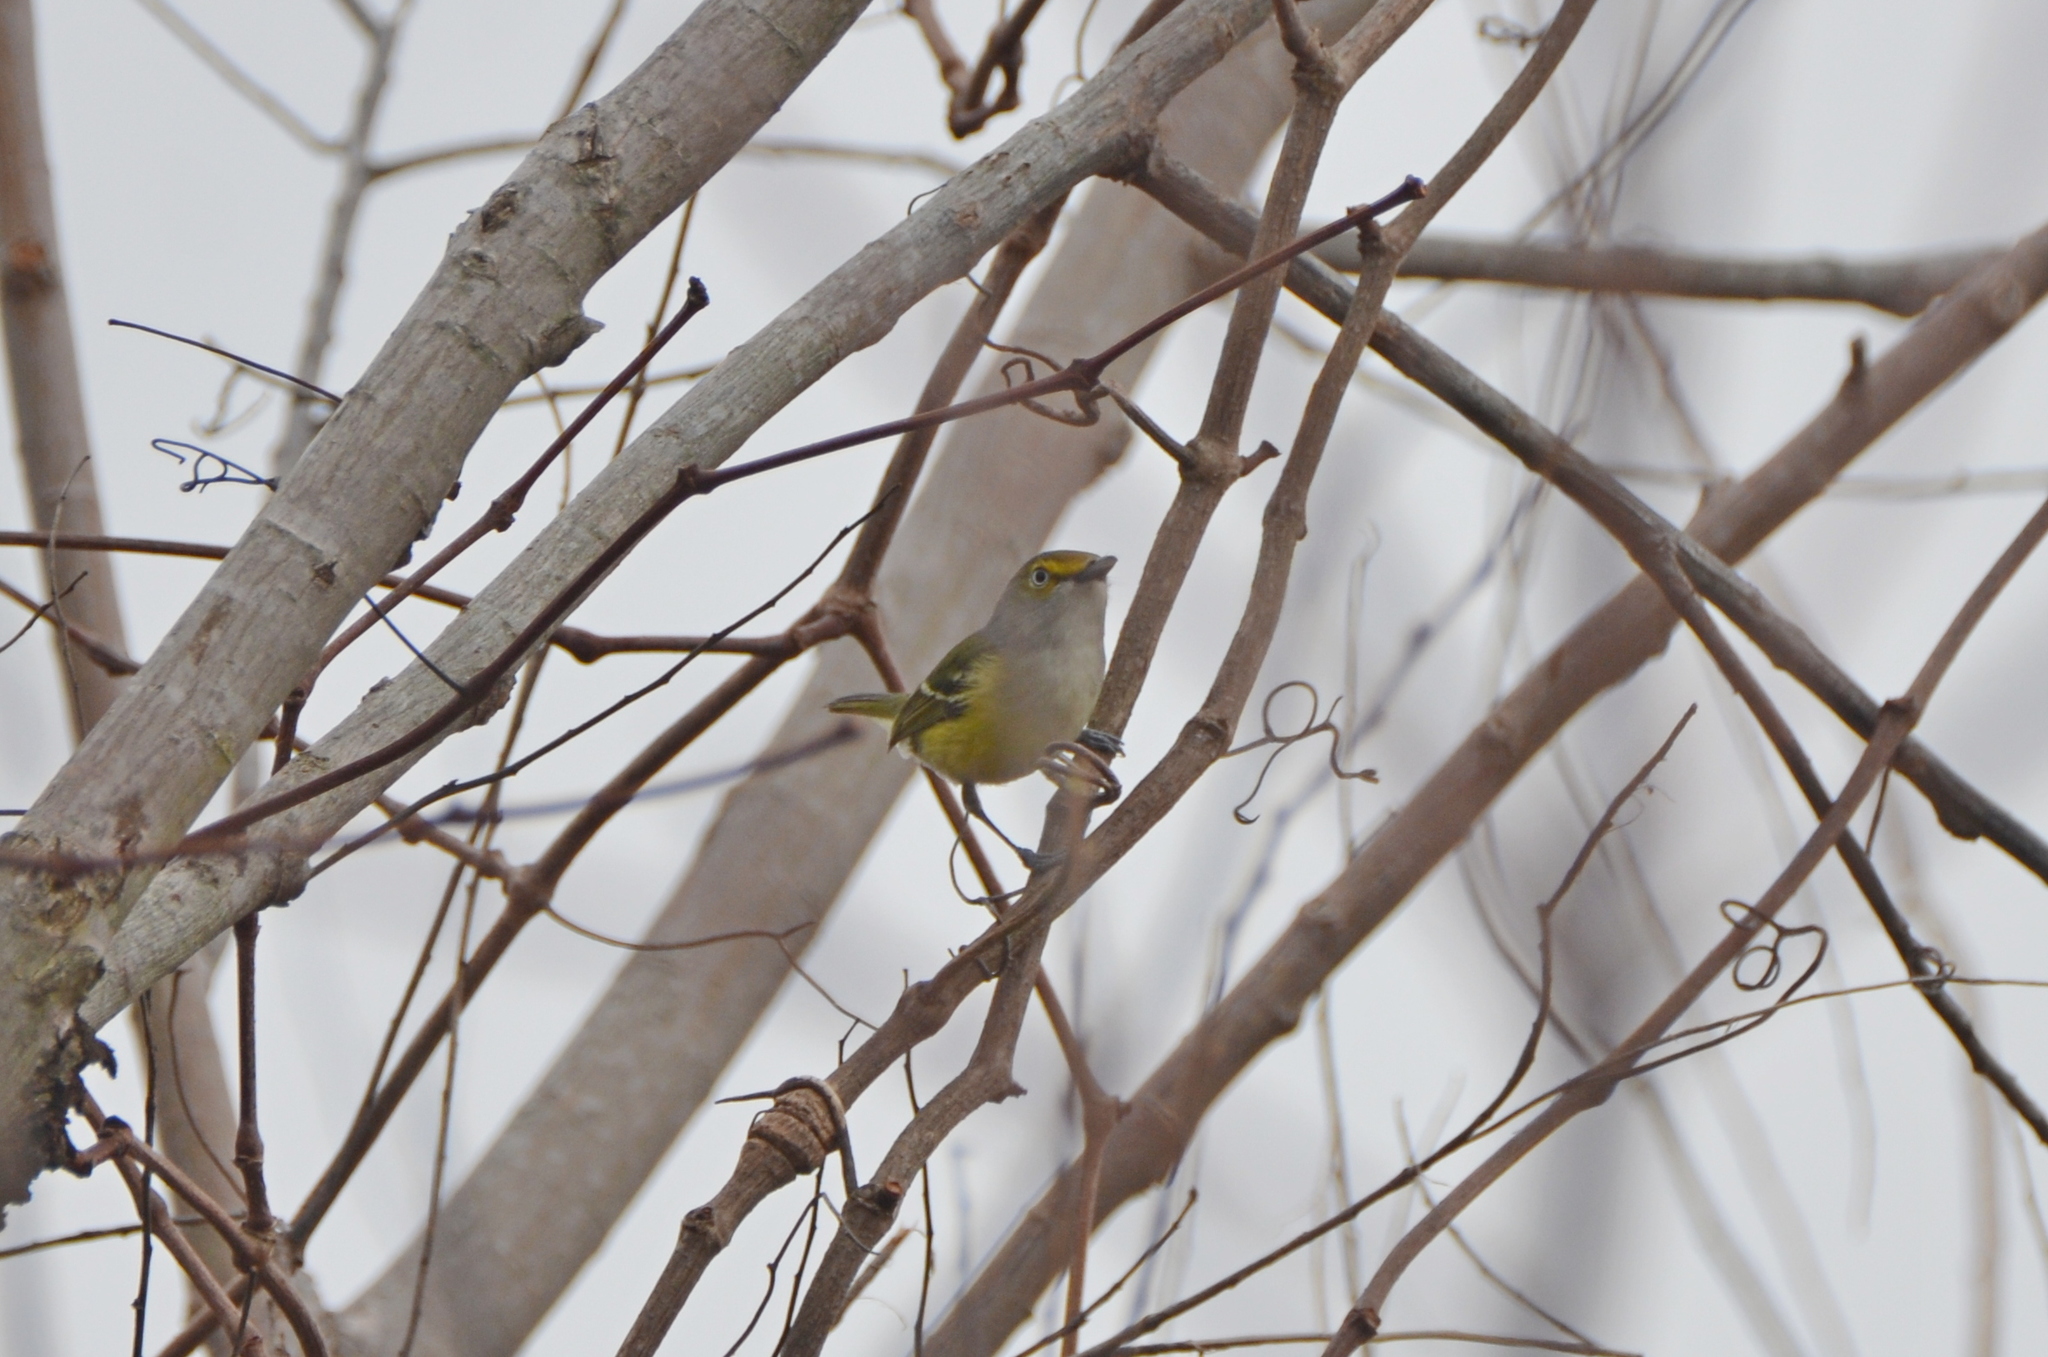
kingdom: Animalia
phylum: Chordata
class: Aves
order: Passeriformes
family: Vireonidae
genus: Vireo
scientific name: Vireo griseus
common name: White-eyed vireo
